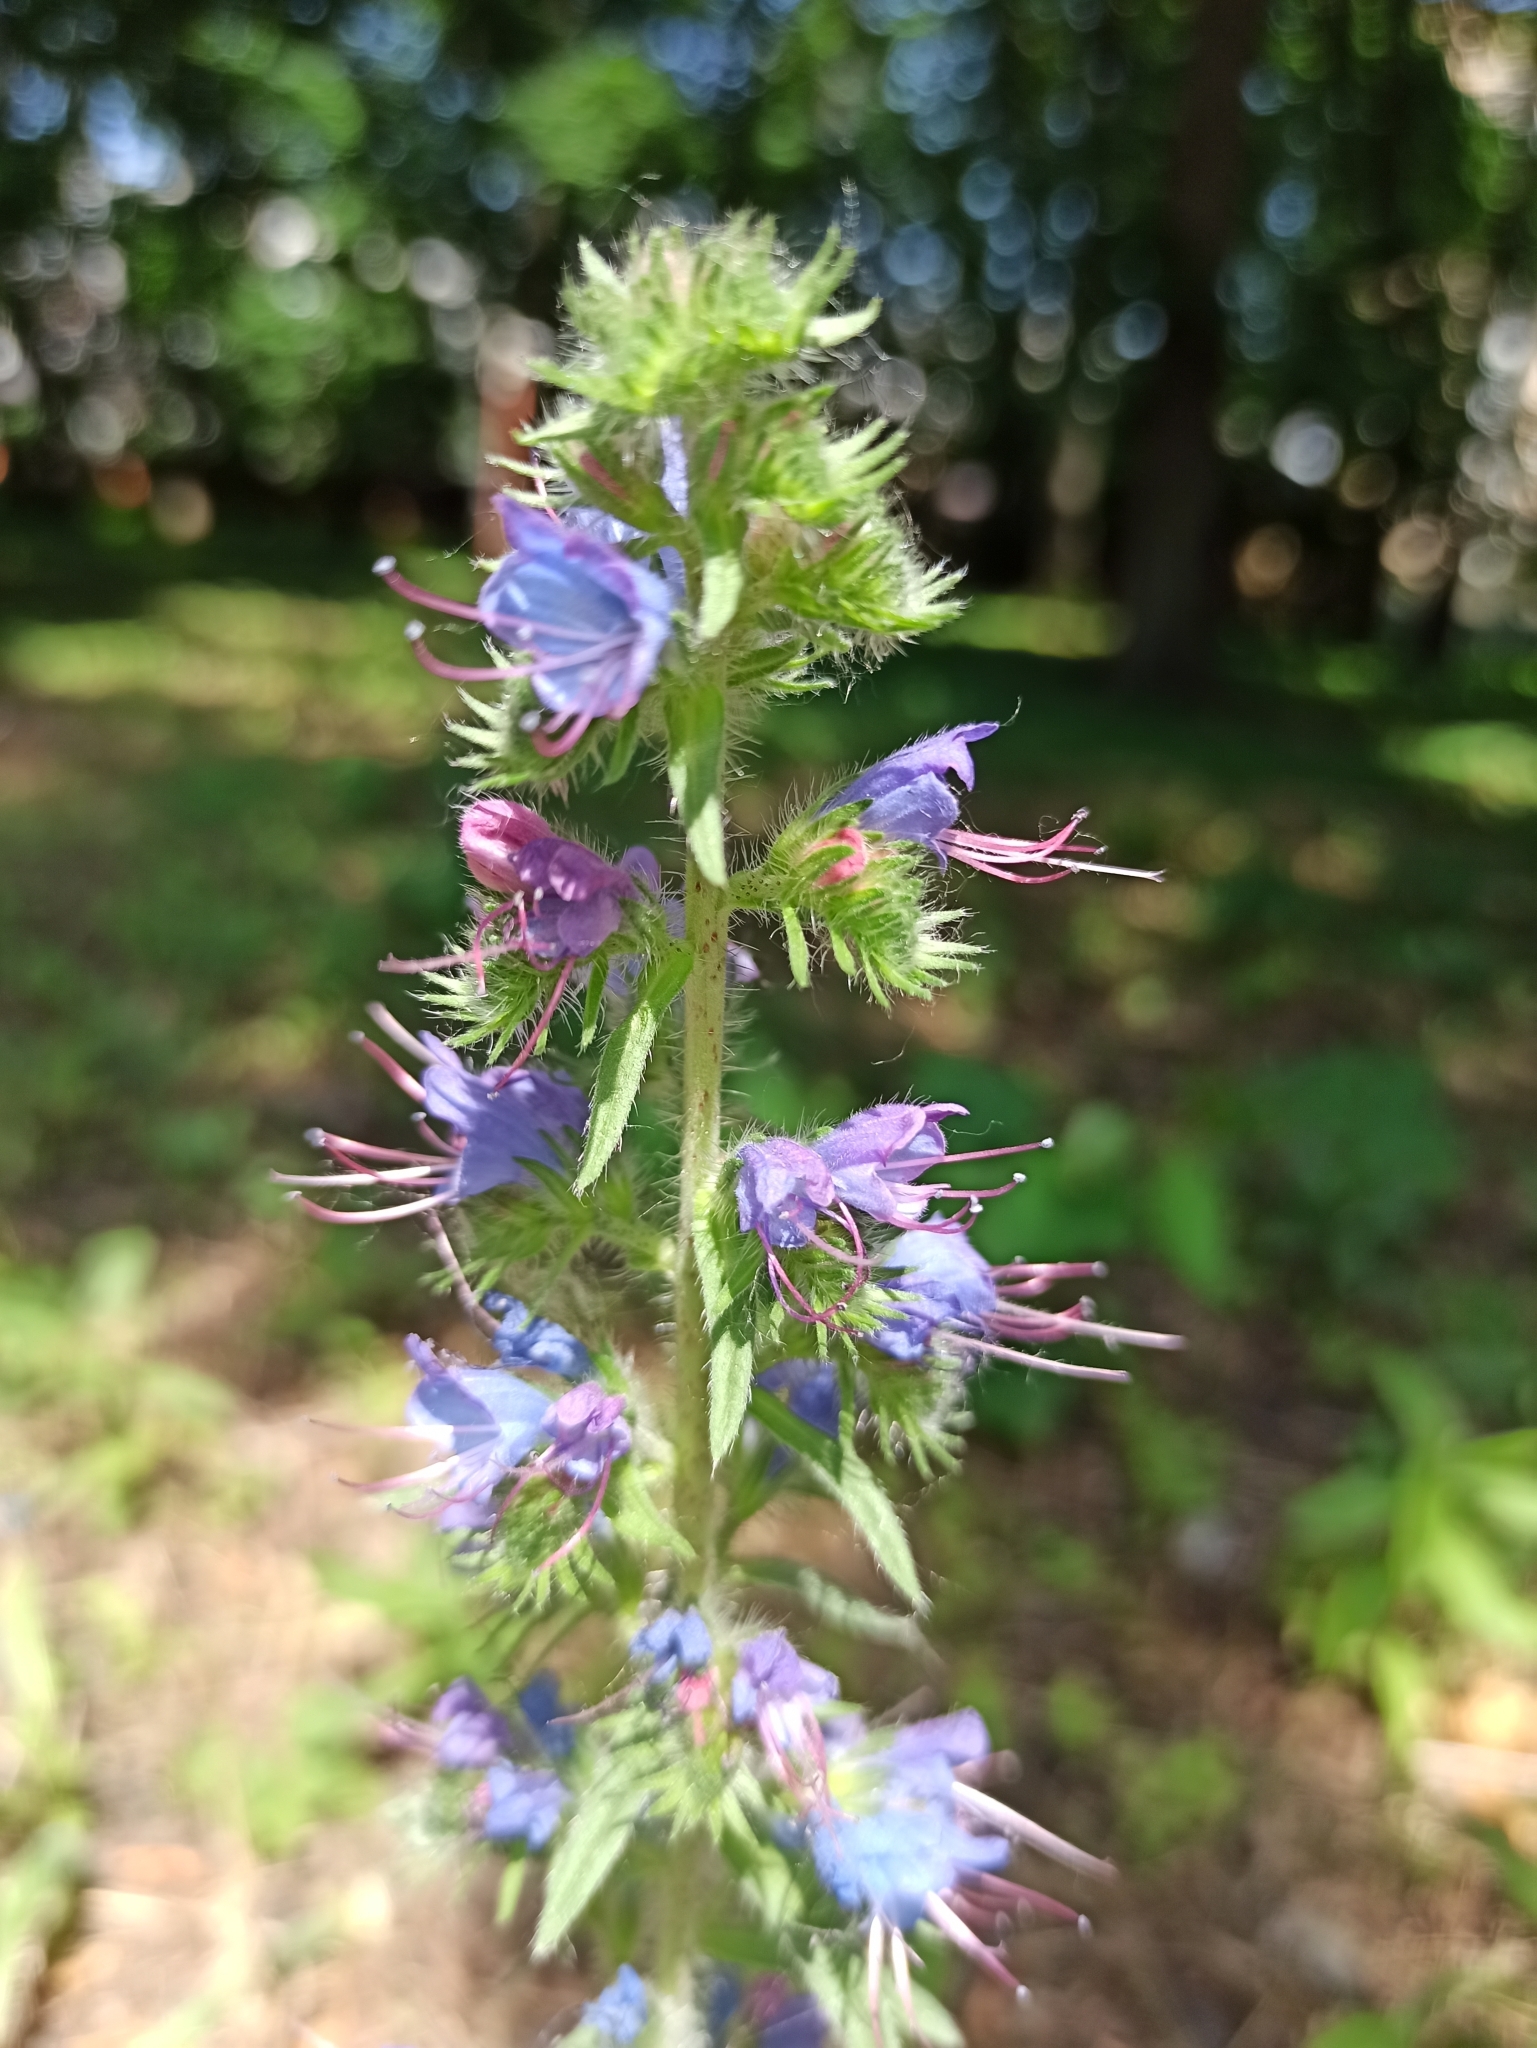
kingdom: Plantae
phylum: Tracheophyta
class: Magnoliopsida
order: Boraginales
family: Boraginaceae
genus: Echium
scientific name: Echium vulgare
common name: Common viper's bugloss
